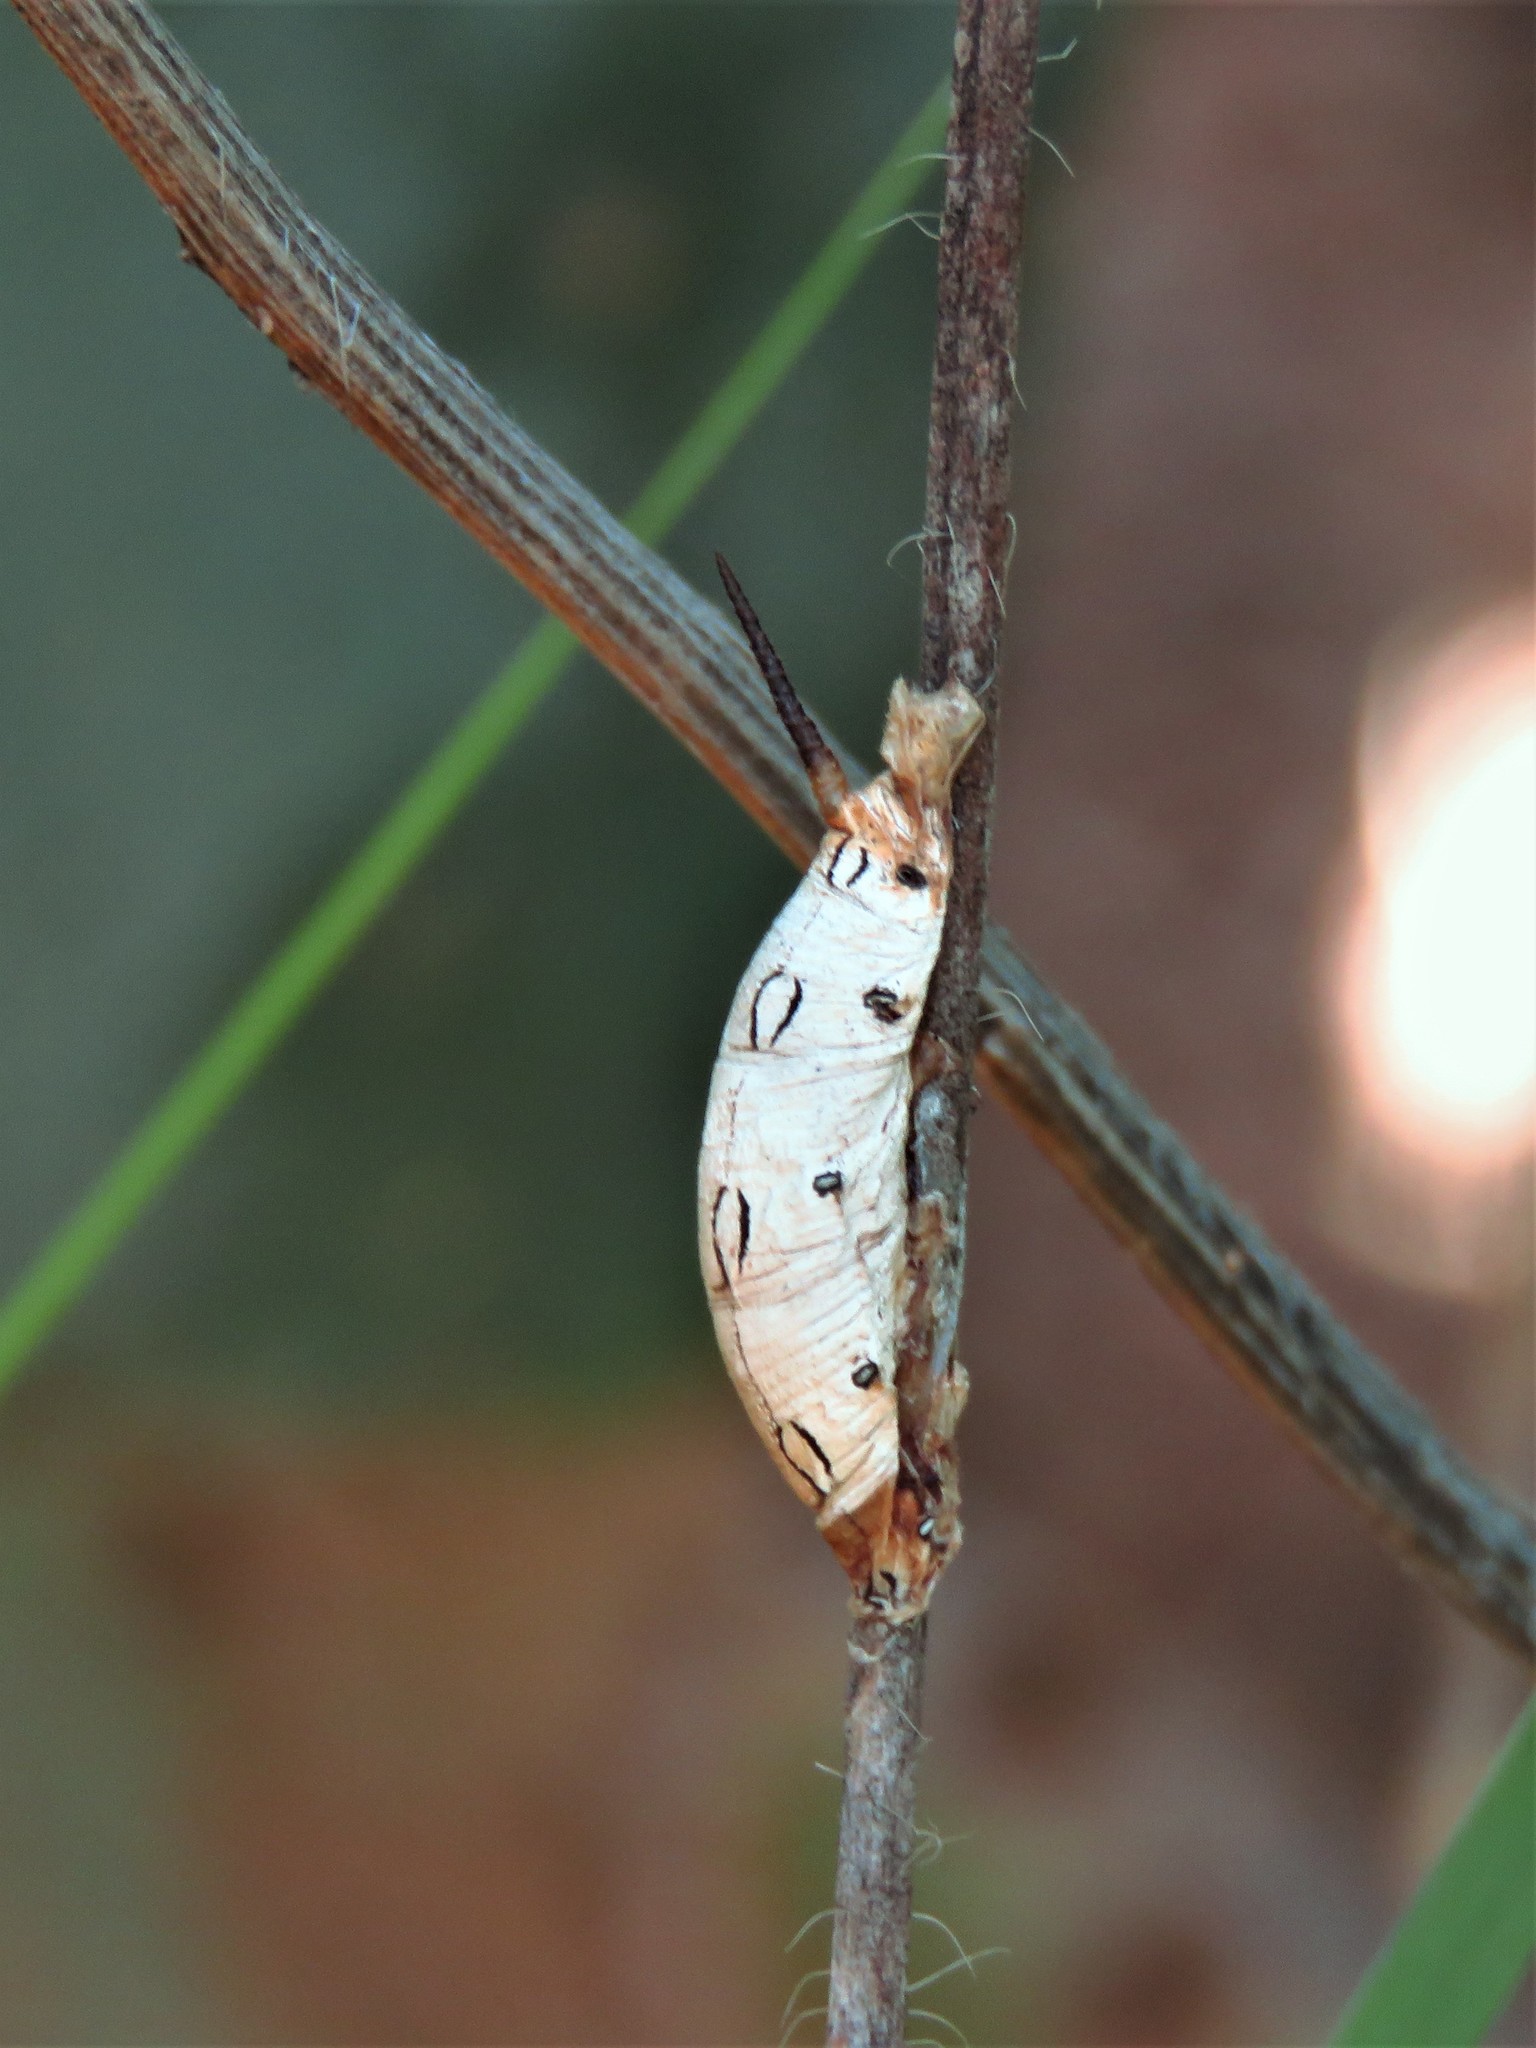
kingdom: Animalia
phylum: Arthropoda
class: Insecta
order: Lepidoptera
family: Sphingidae
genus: Hyles
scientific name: Hyles lineata
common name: White-lined sphinx
